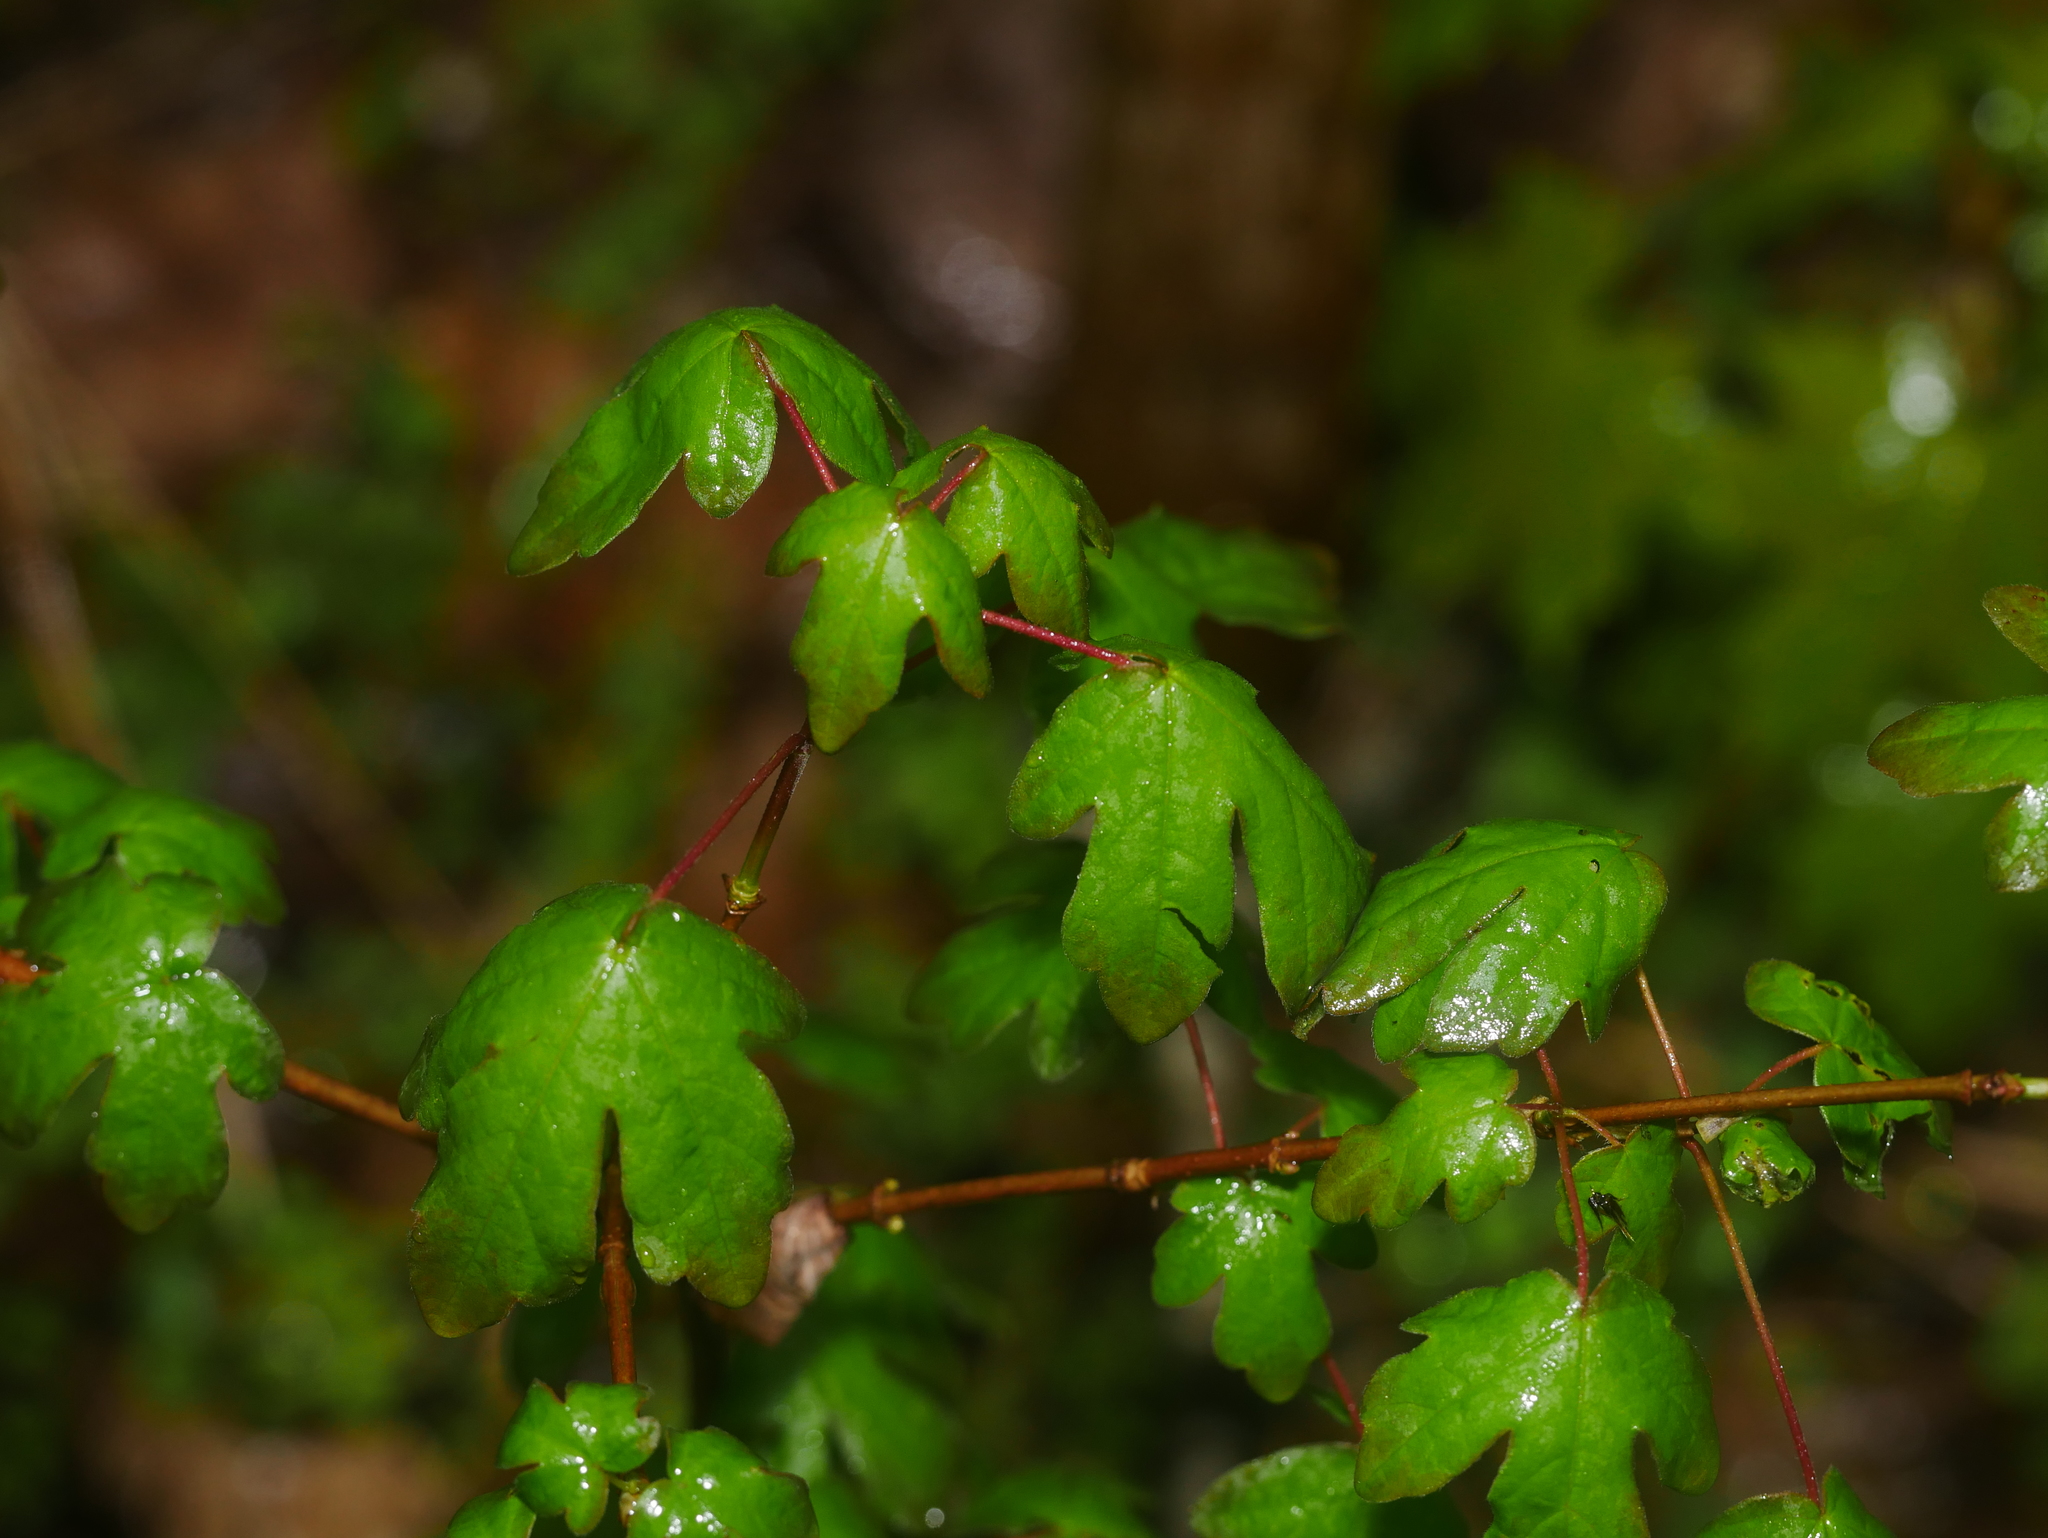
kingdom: Plantae
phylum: Tracheophyta
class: Magnoliopsida
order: Sapindales
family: Sapindaceae
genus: Acer
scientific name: Acer campestre
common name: Field maple
